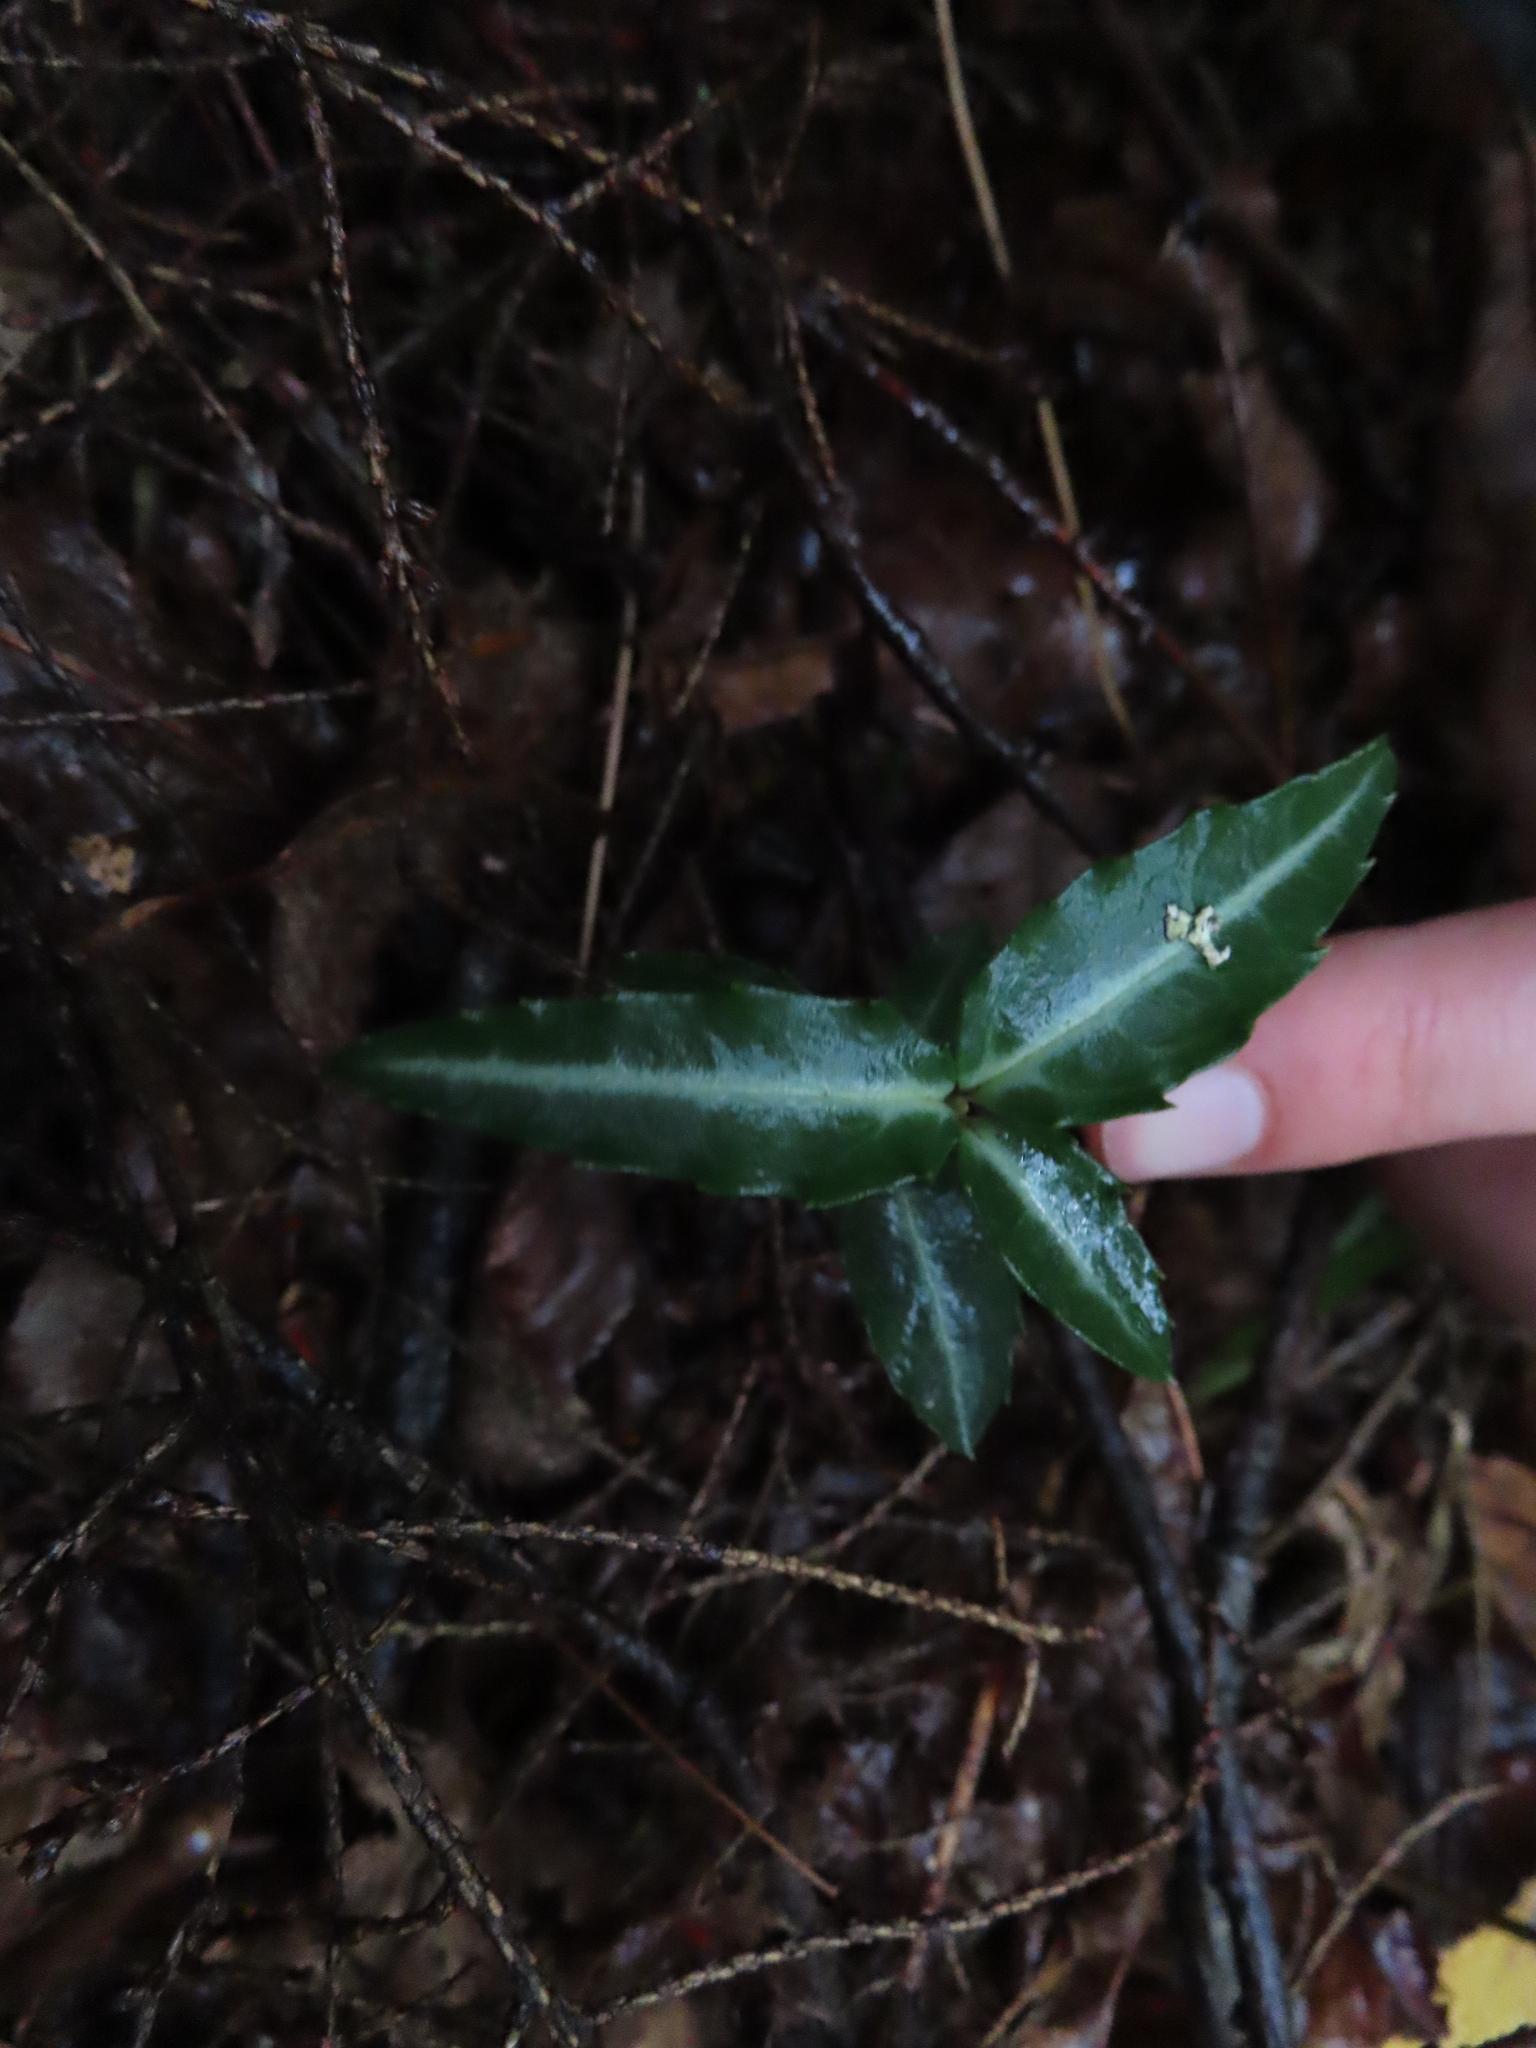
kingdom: Plantae
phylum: Tracheophyta
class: Magnoliopsida
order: Ericales
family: Ericaceae
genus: Chimaphila
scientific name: Chimaphila maculata
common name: Spotted pipsissewa
